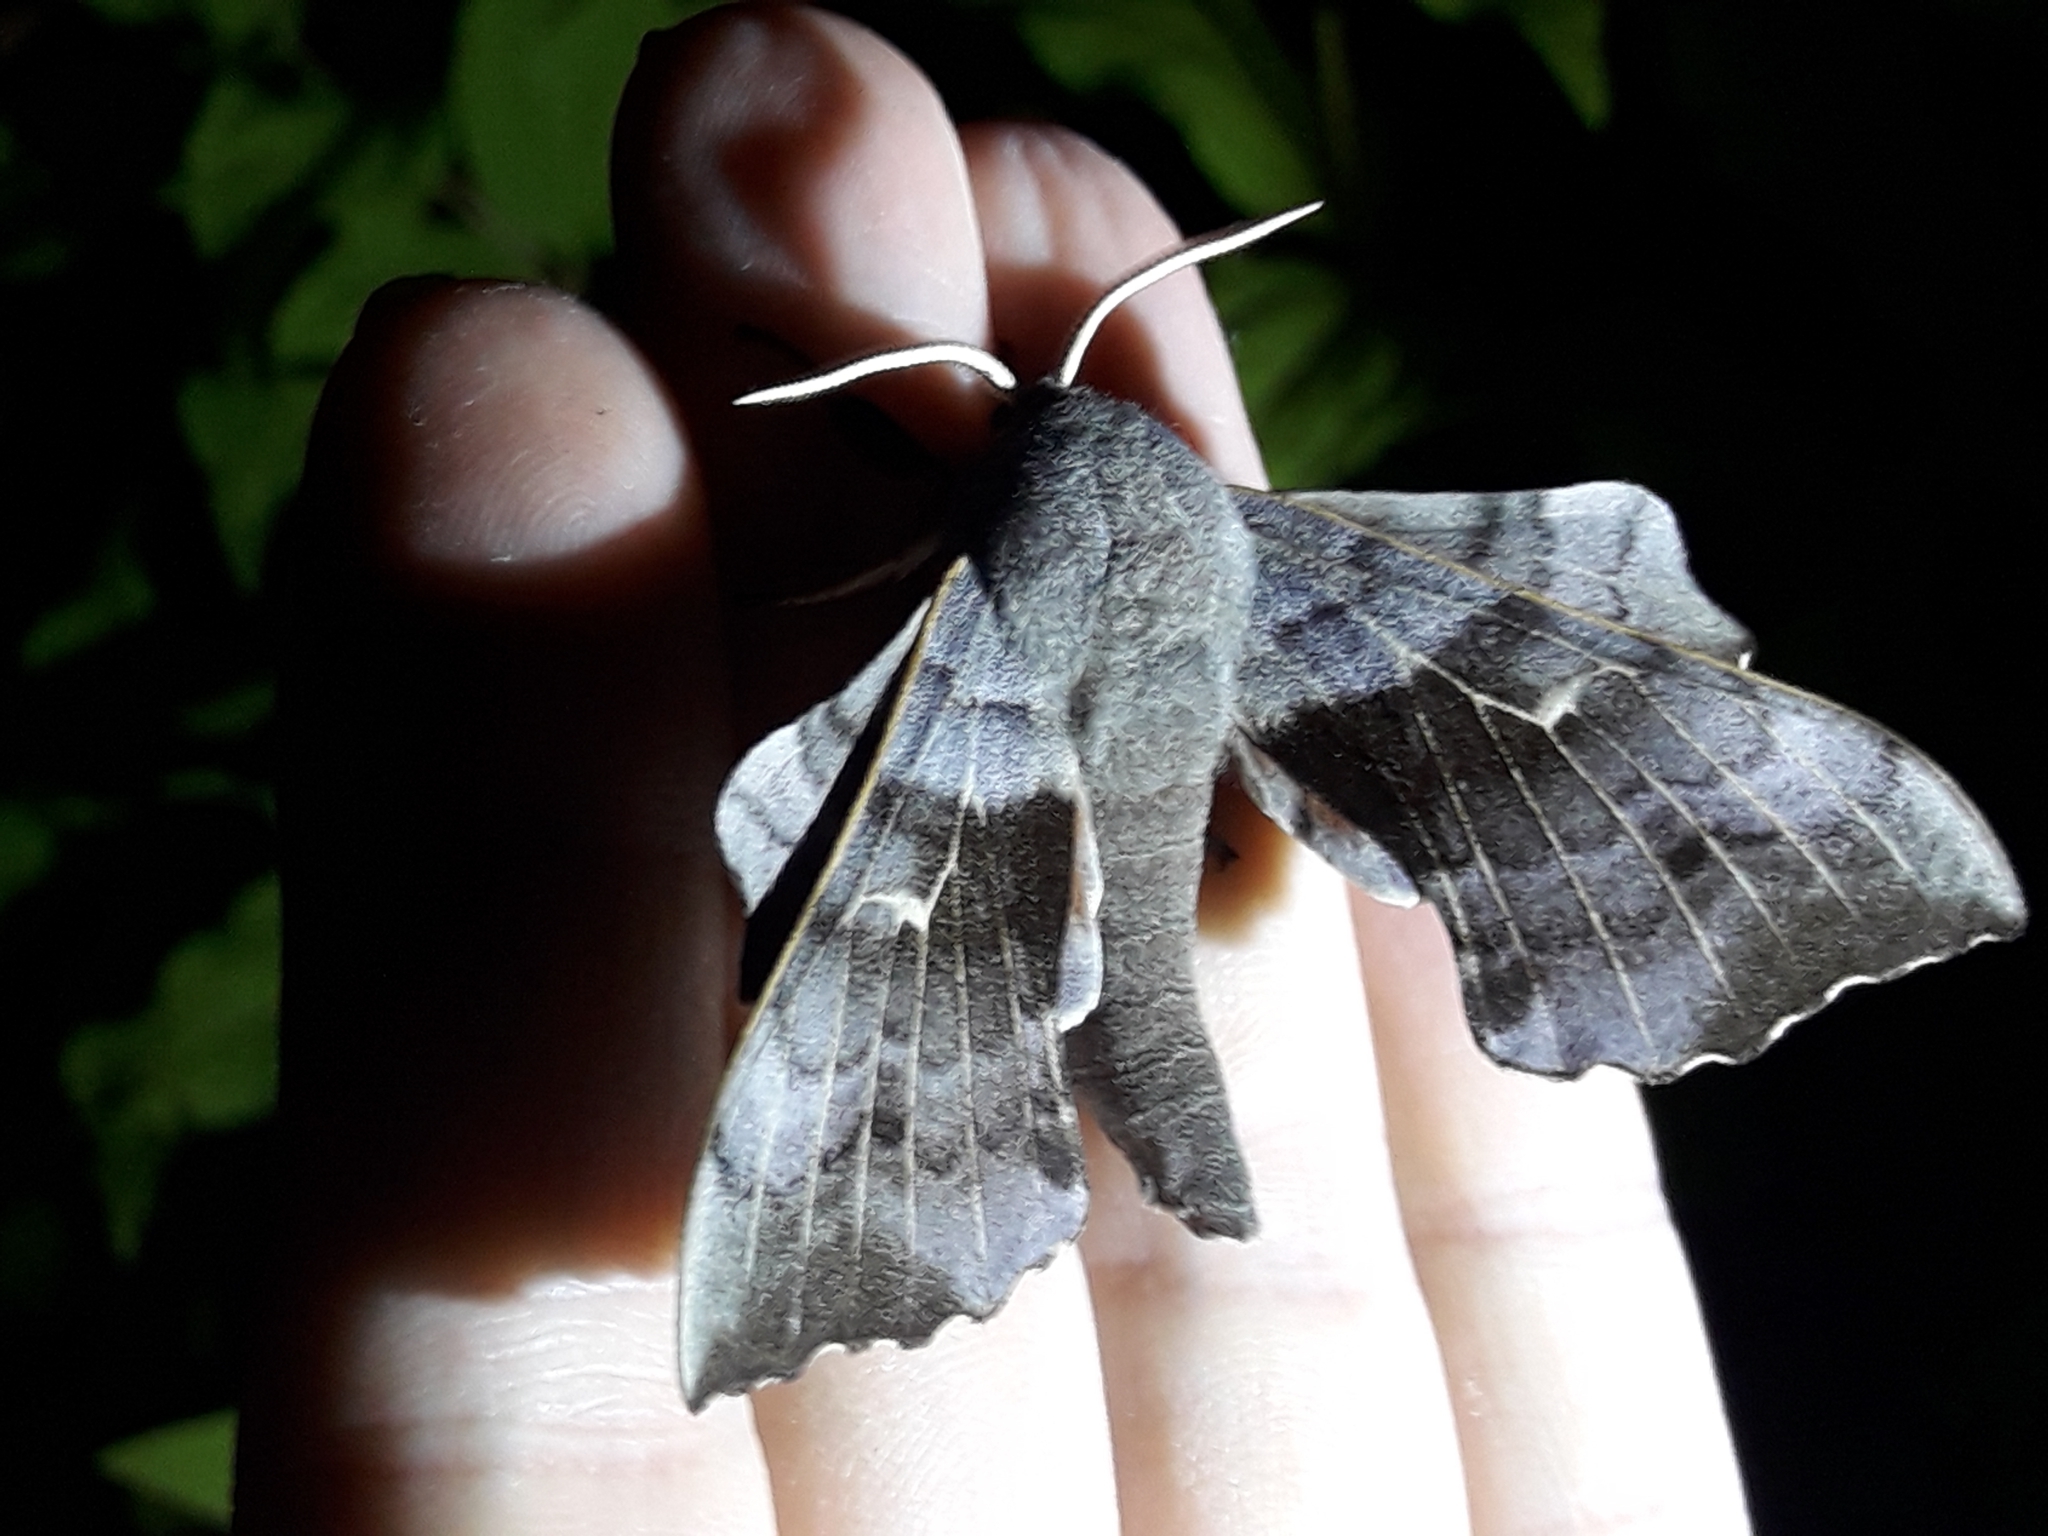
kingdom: Animalia
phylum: Arthropoda
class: Insecta
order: Lepidoptera
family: Sphingidae
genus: Laothoe
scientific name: Laothoe populi
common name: Poplar hawk-moth
